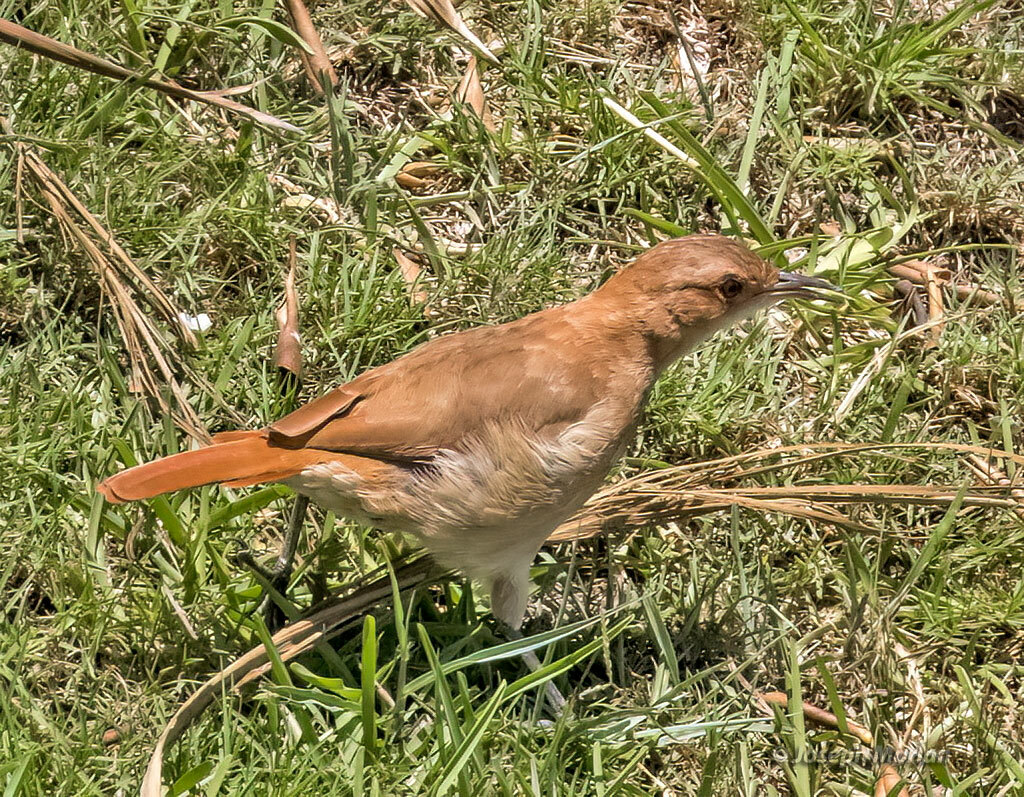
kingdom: Animalia
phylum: Chordata
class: Aves
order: Passeriformes
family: Furnariidae
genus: Furnarius
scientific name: Furnarius rufus
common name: Rufous hornero
